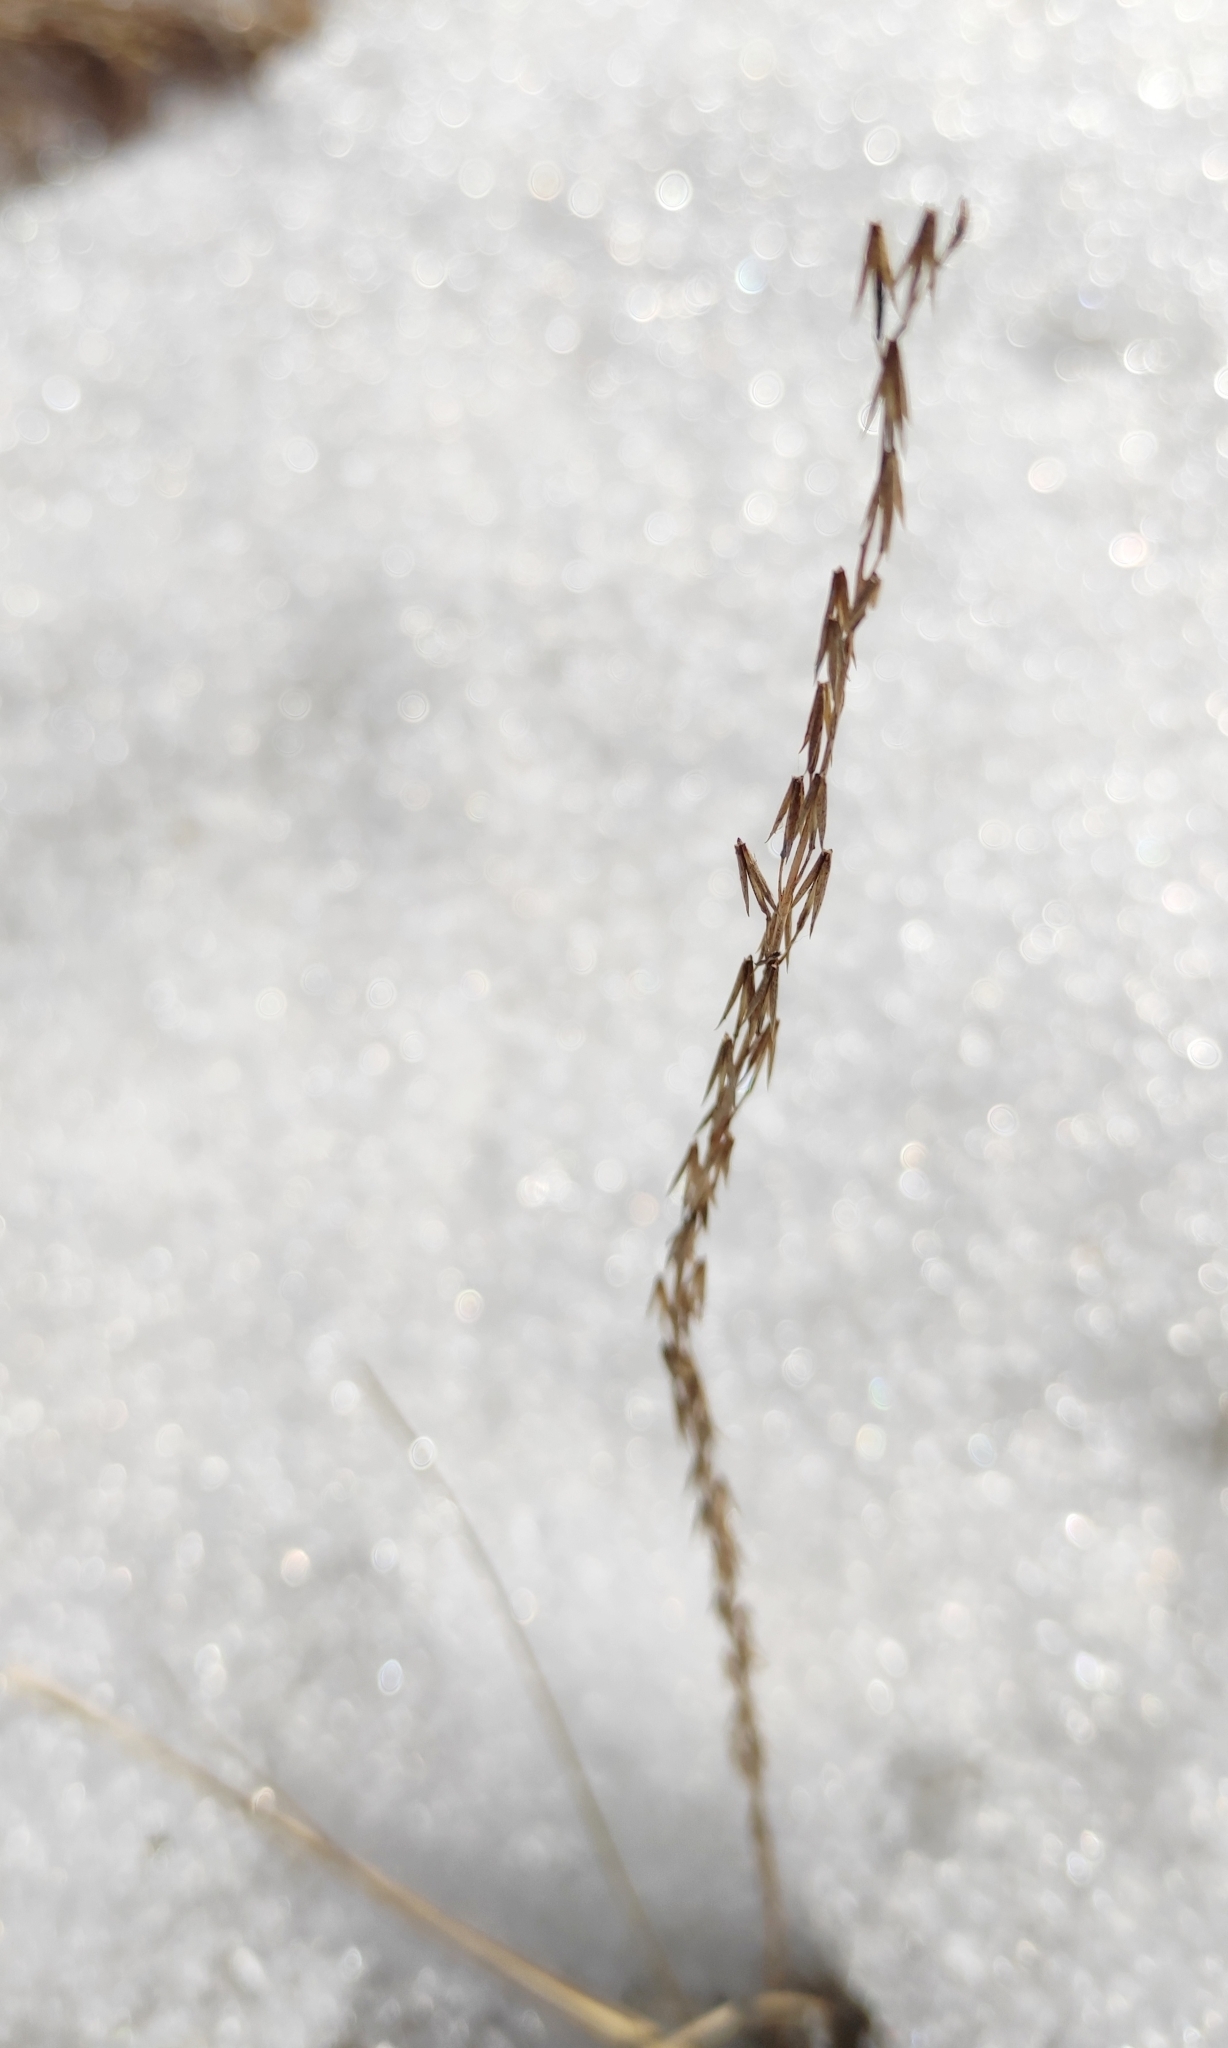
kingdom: Plantae
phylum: Tracheophyta
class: Liliopsida
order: Alismatales
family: Juncaginaceae
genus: Triglochin
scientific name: Triglochin palustris
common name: Marsh arrowgrass
